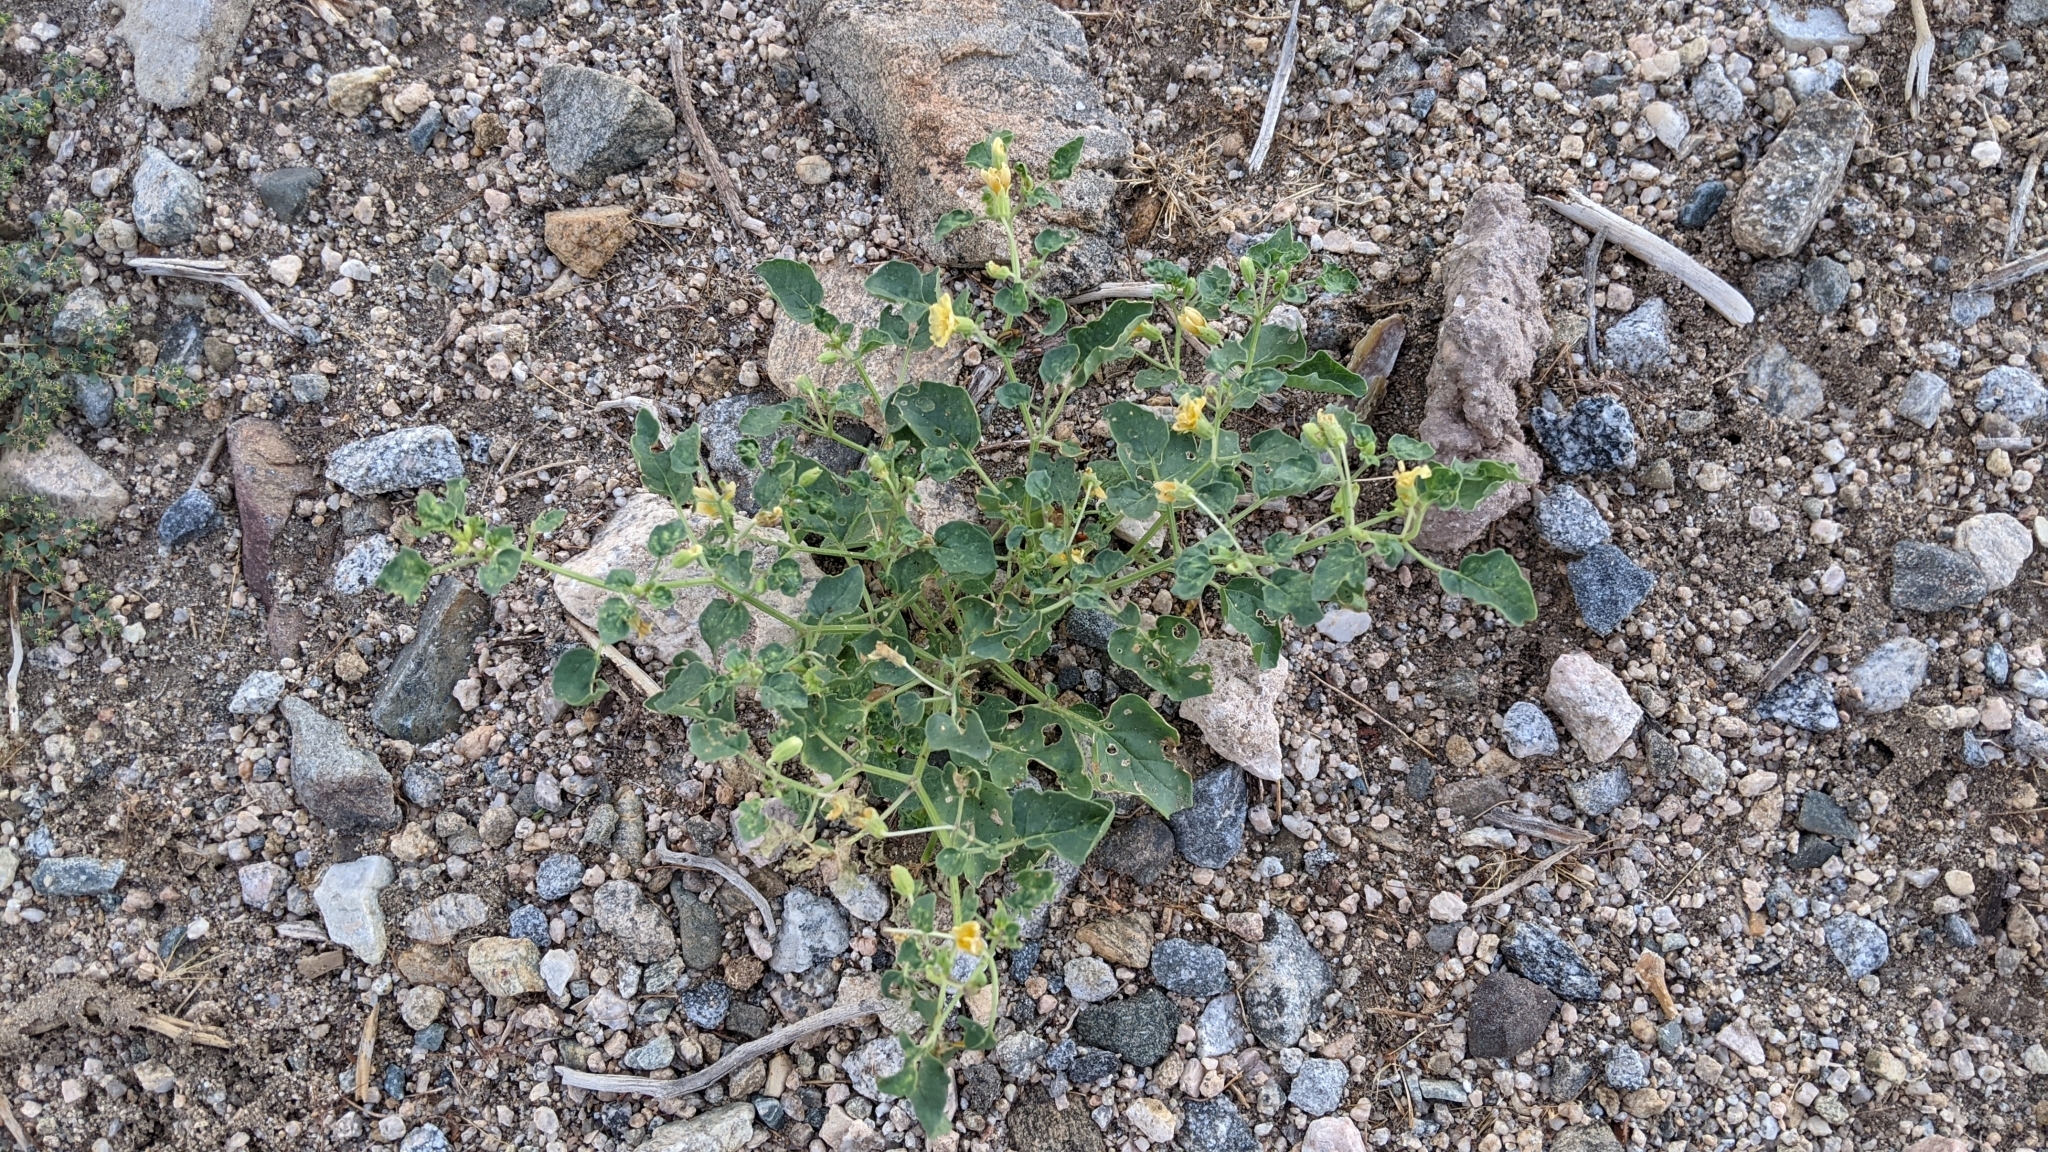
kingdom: Plantae
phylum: Tracheophyta
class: Magnoliopsida
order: Solanales
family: Solanaceae
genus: Physalis
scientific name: Physalis crassifolia
